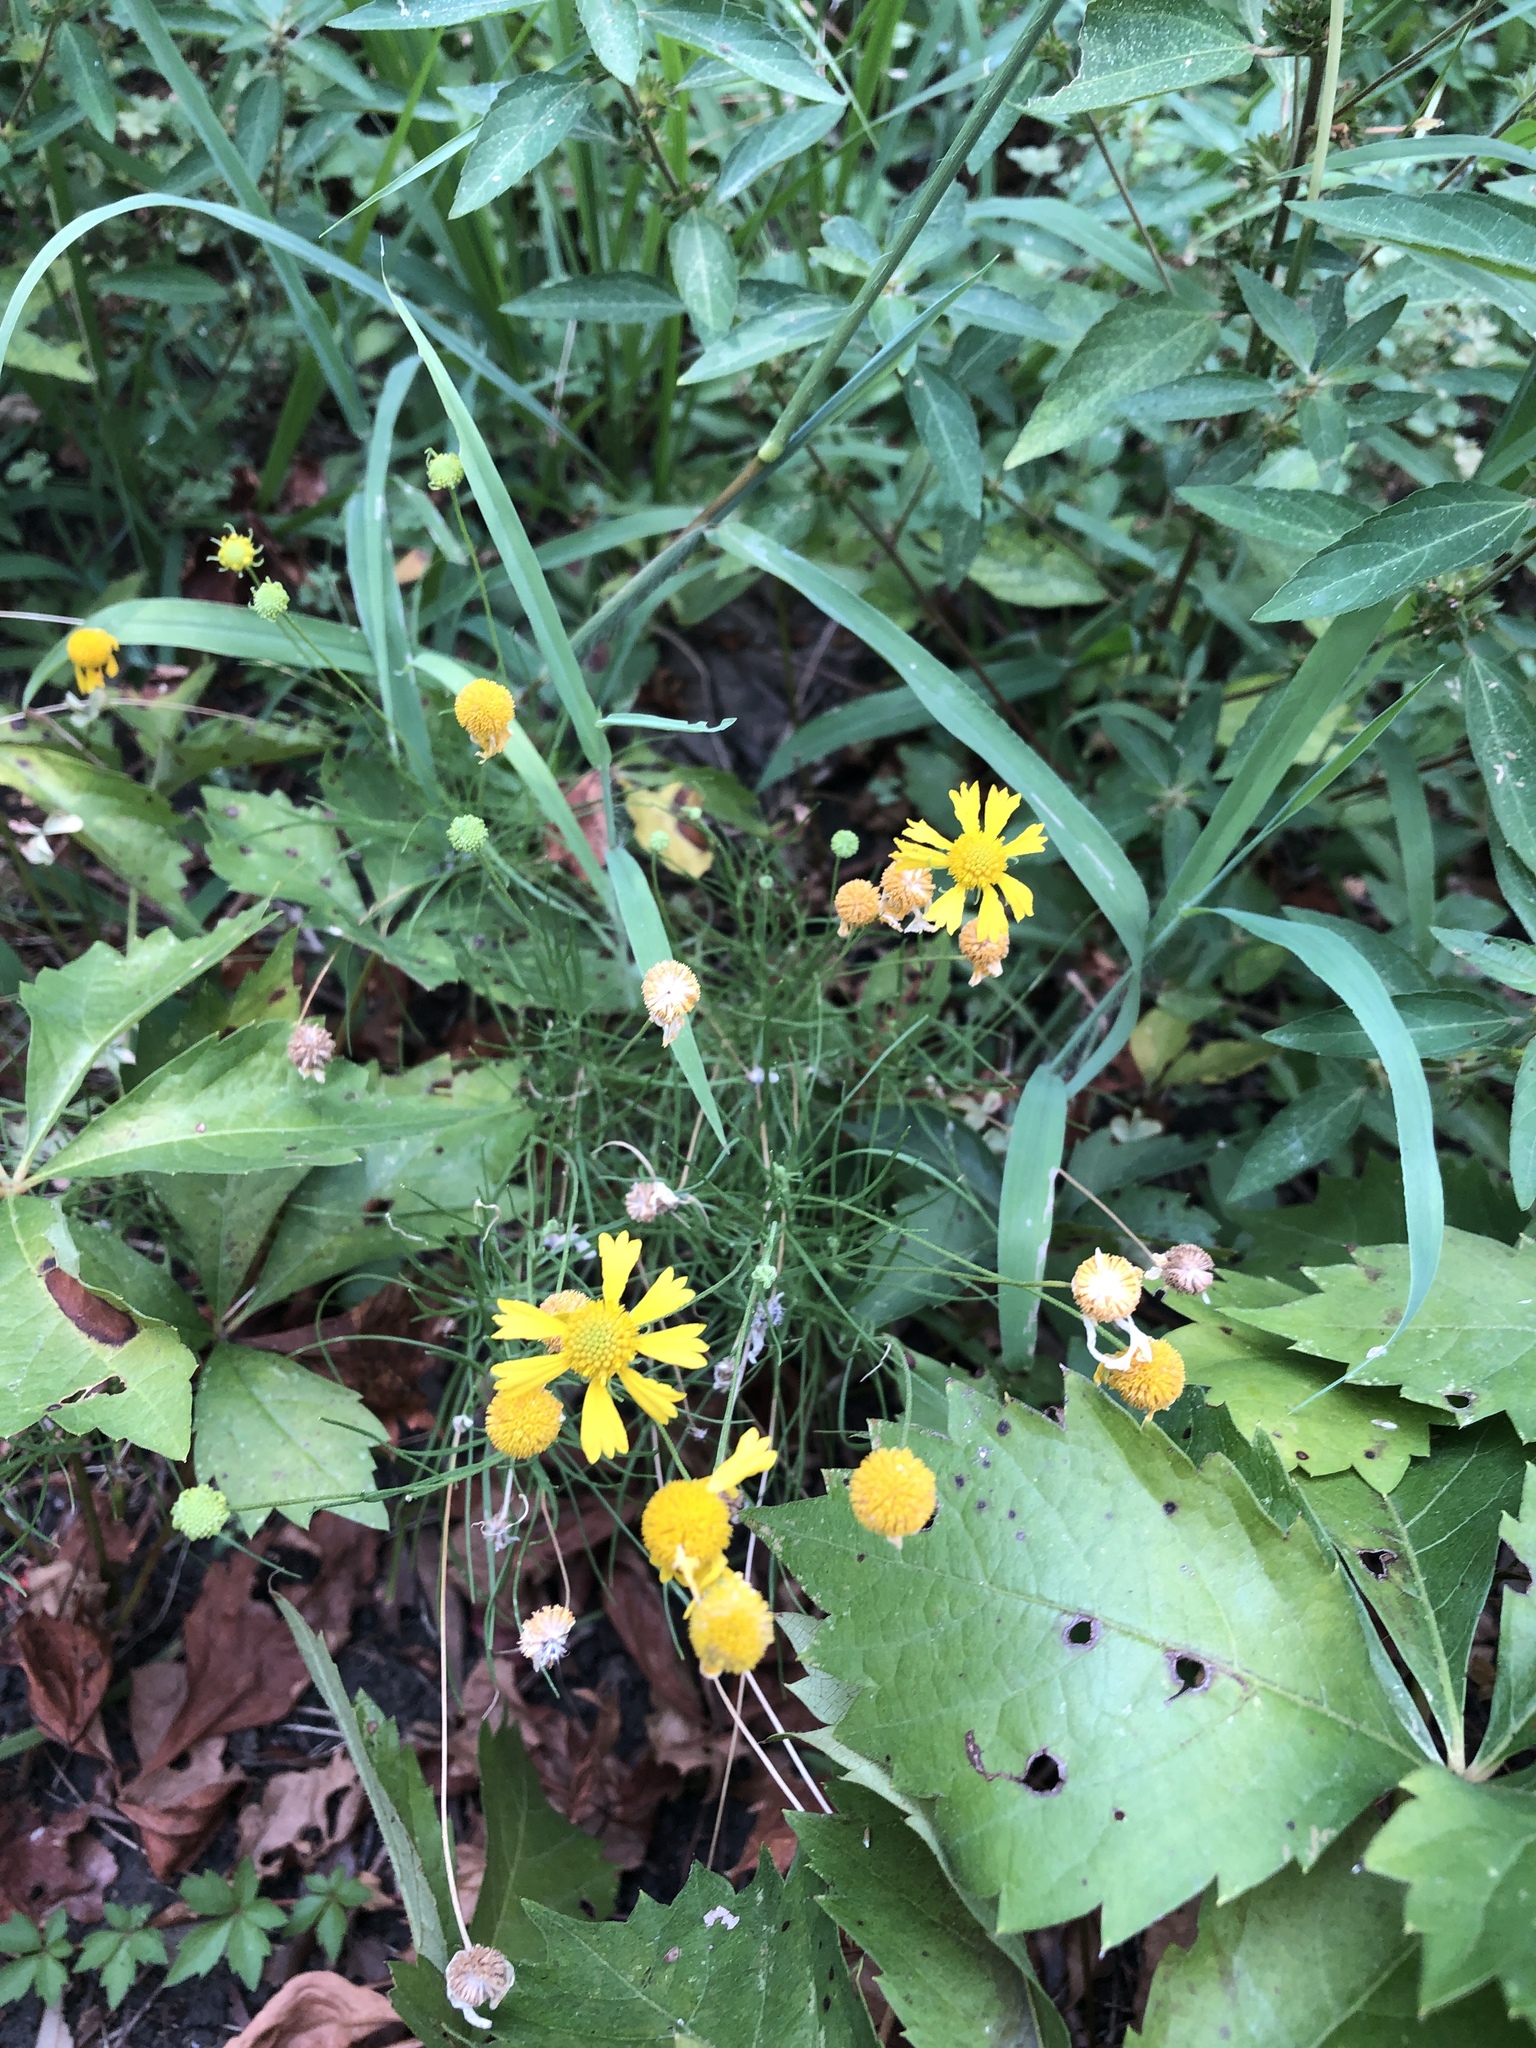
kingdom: Plantae
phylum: Tracheophyta
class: Magnoliopsida
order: Asterales
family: Asteraceae
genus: Helenium
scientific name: Helenium amarum
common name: Bitter sneezeweed
